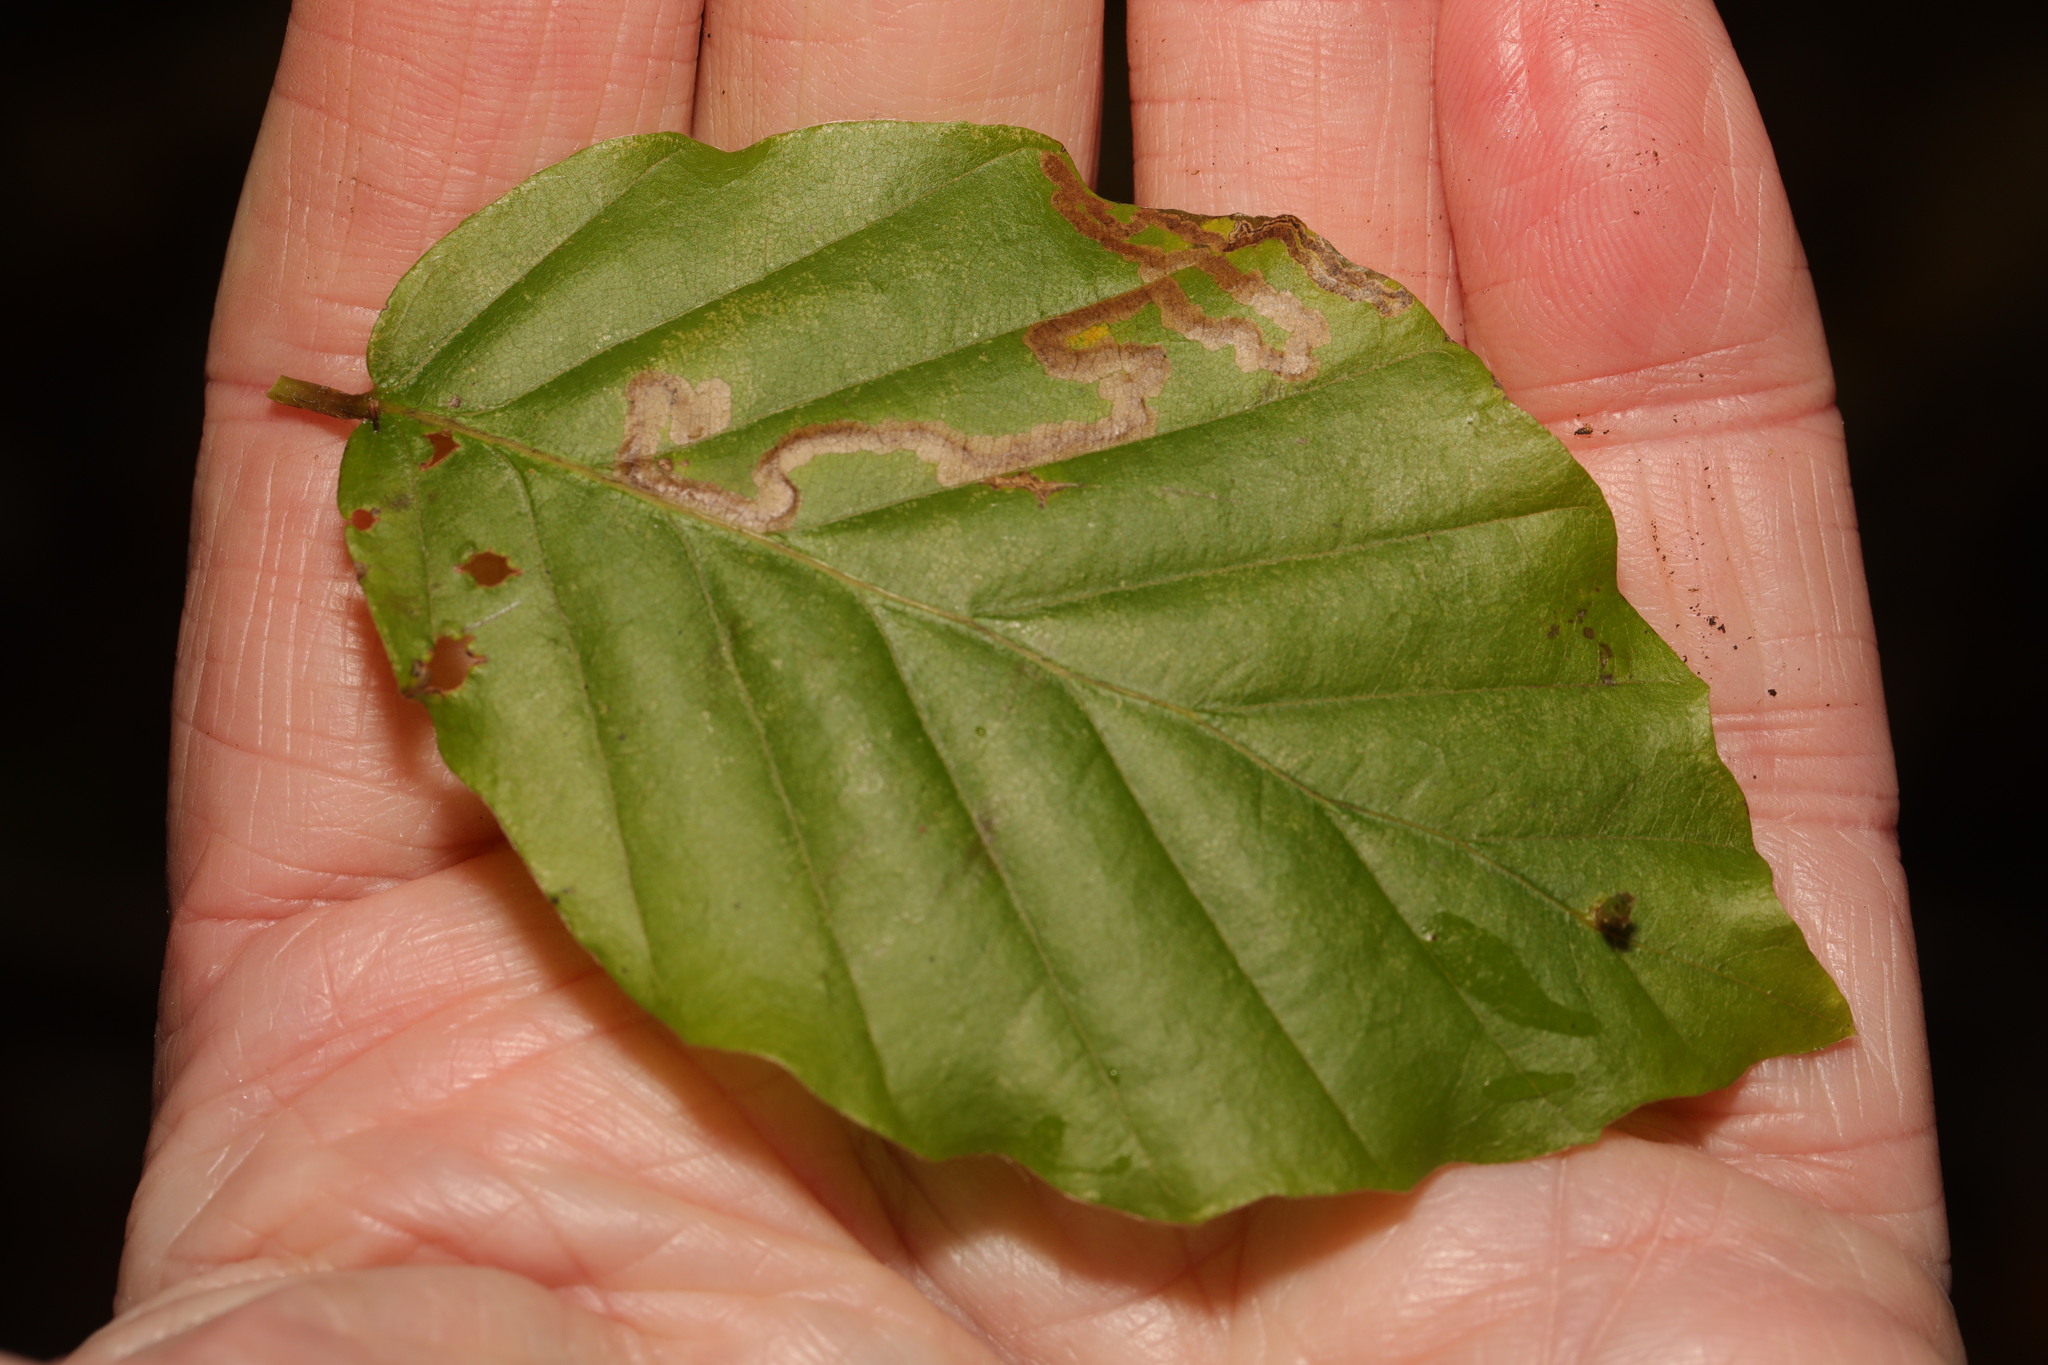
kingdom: Plantae
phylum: Tracheophyta
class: Magnoliopsida
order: Fagales
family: Fagaceae
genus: Fagus
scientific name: Fagus sylvatica
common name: Beech
